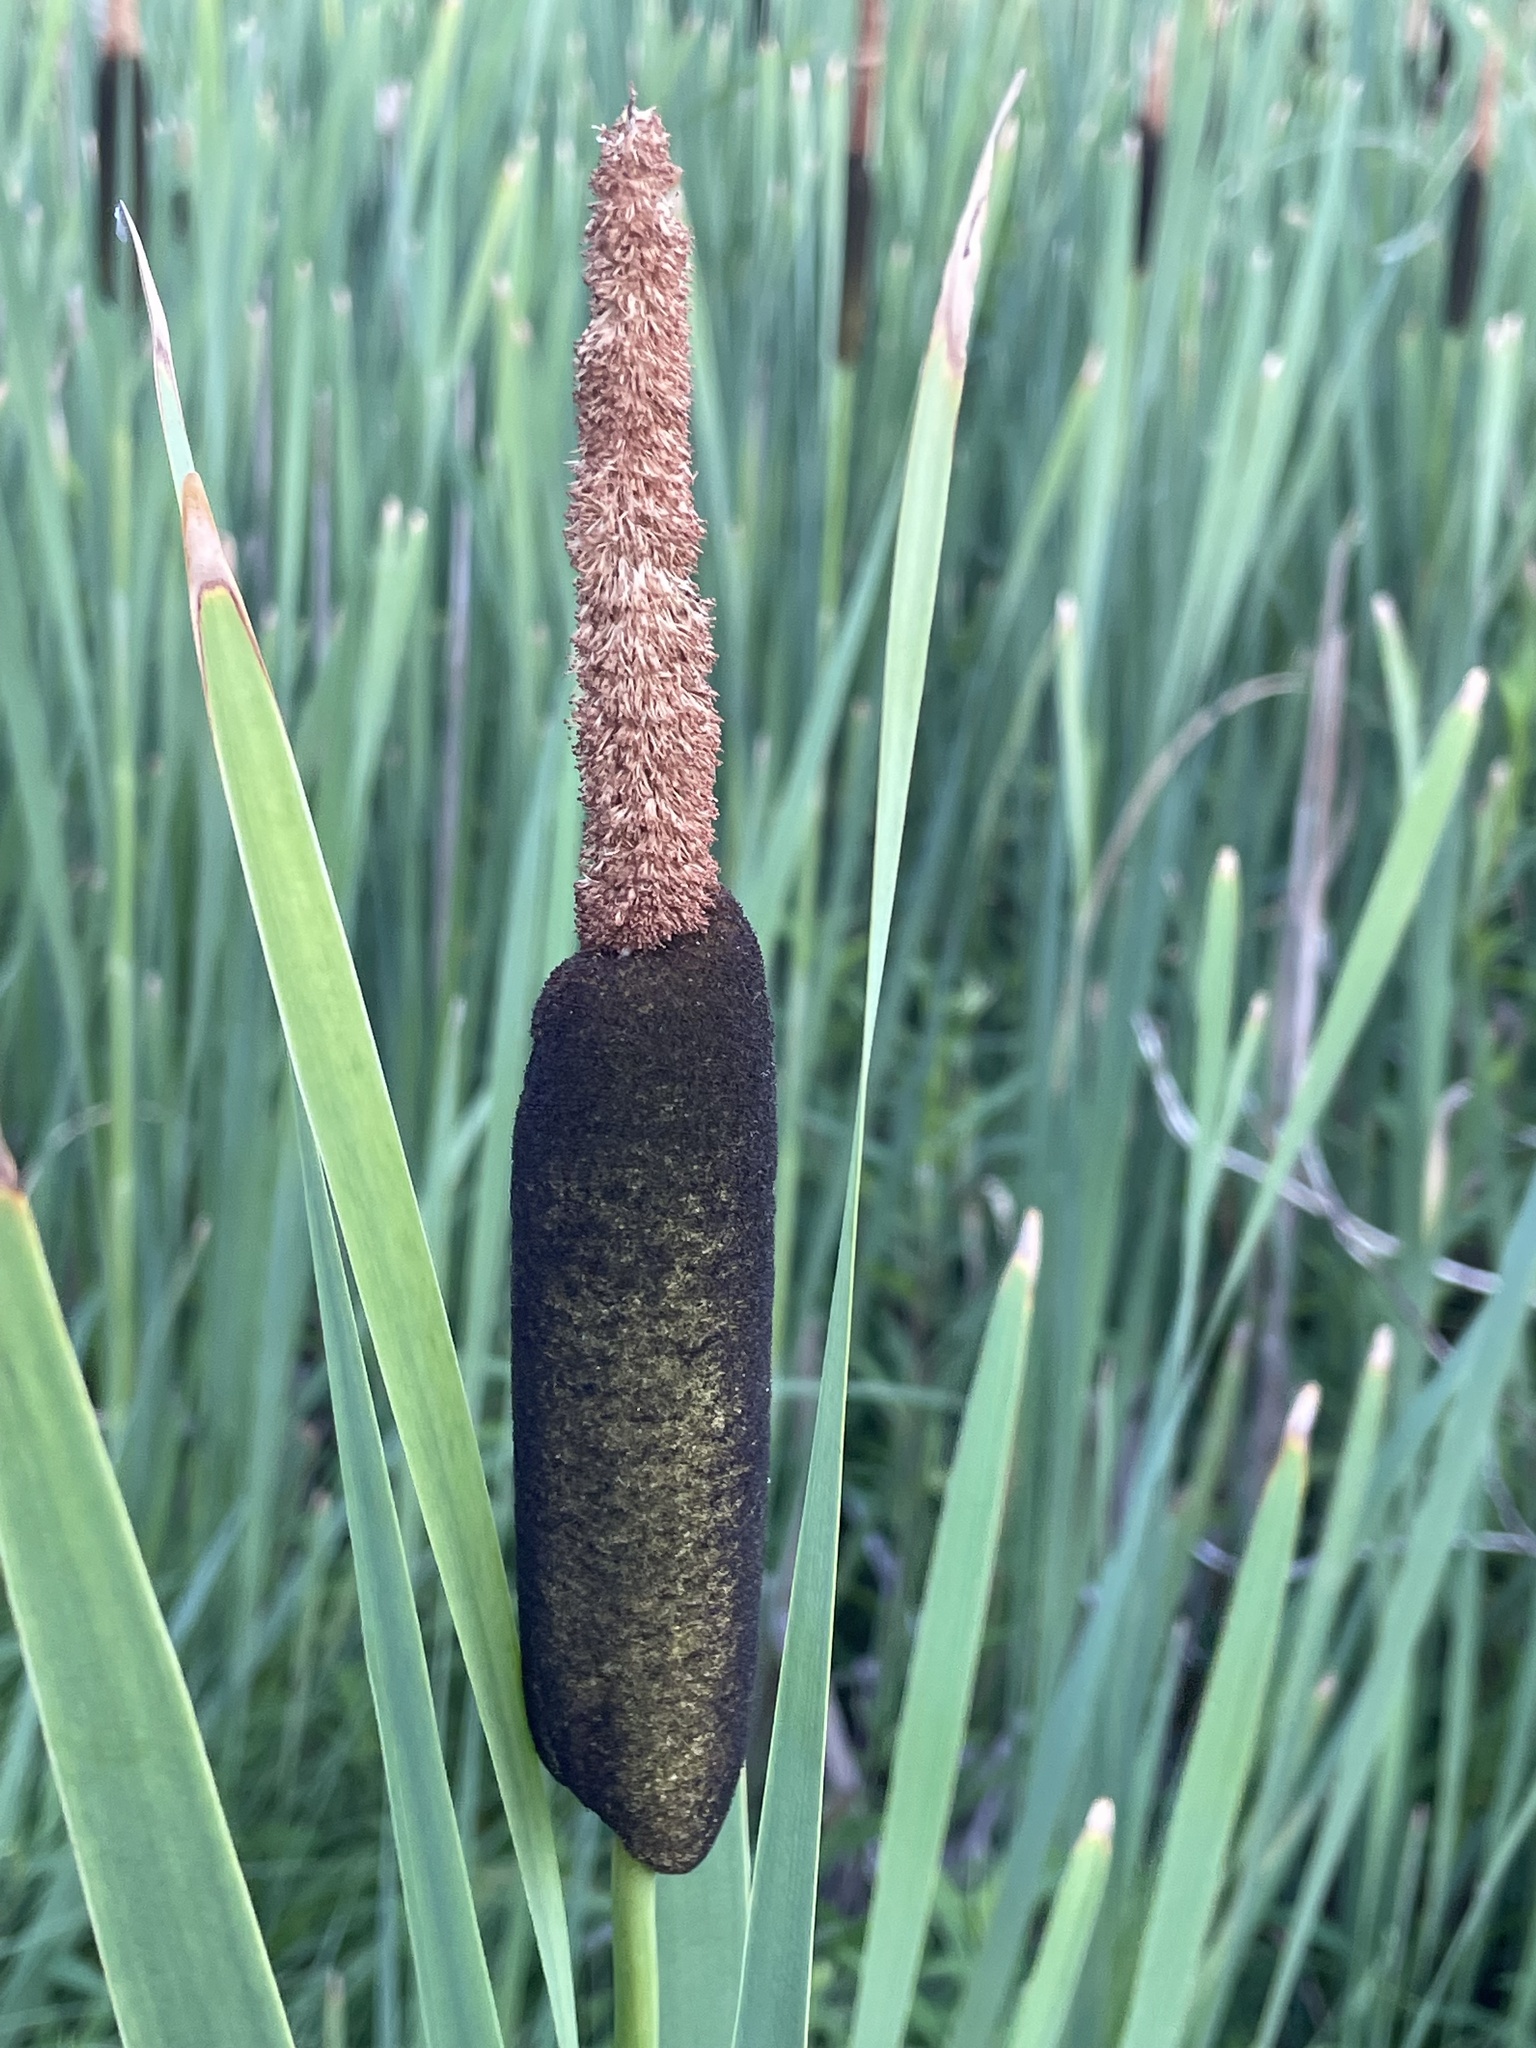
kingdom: Plantae
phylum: Tracheophyta
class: Liliopsida
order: Poales
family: Typhaceae
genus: Typha
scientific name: Typha latifolia
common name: Broadleaf cattail
